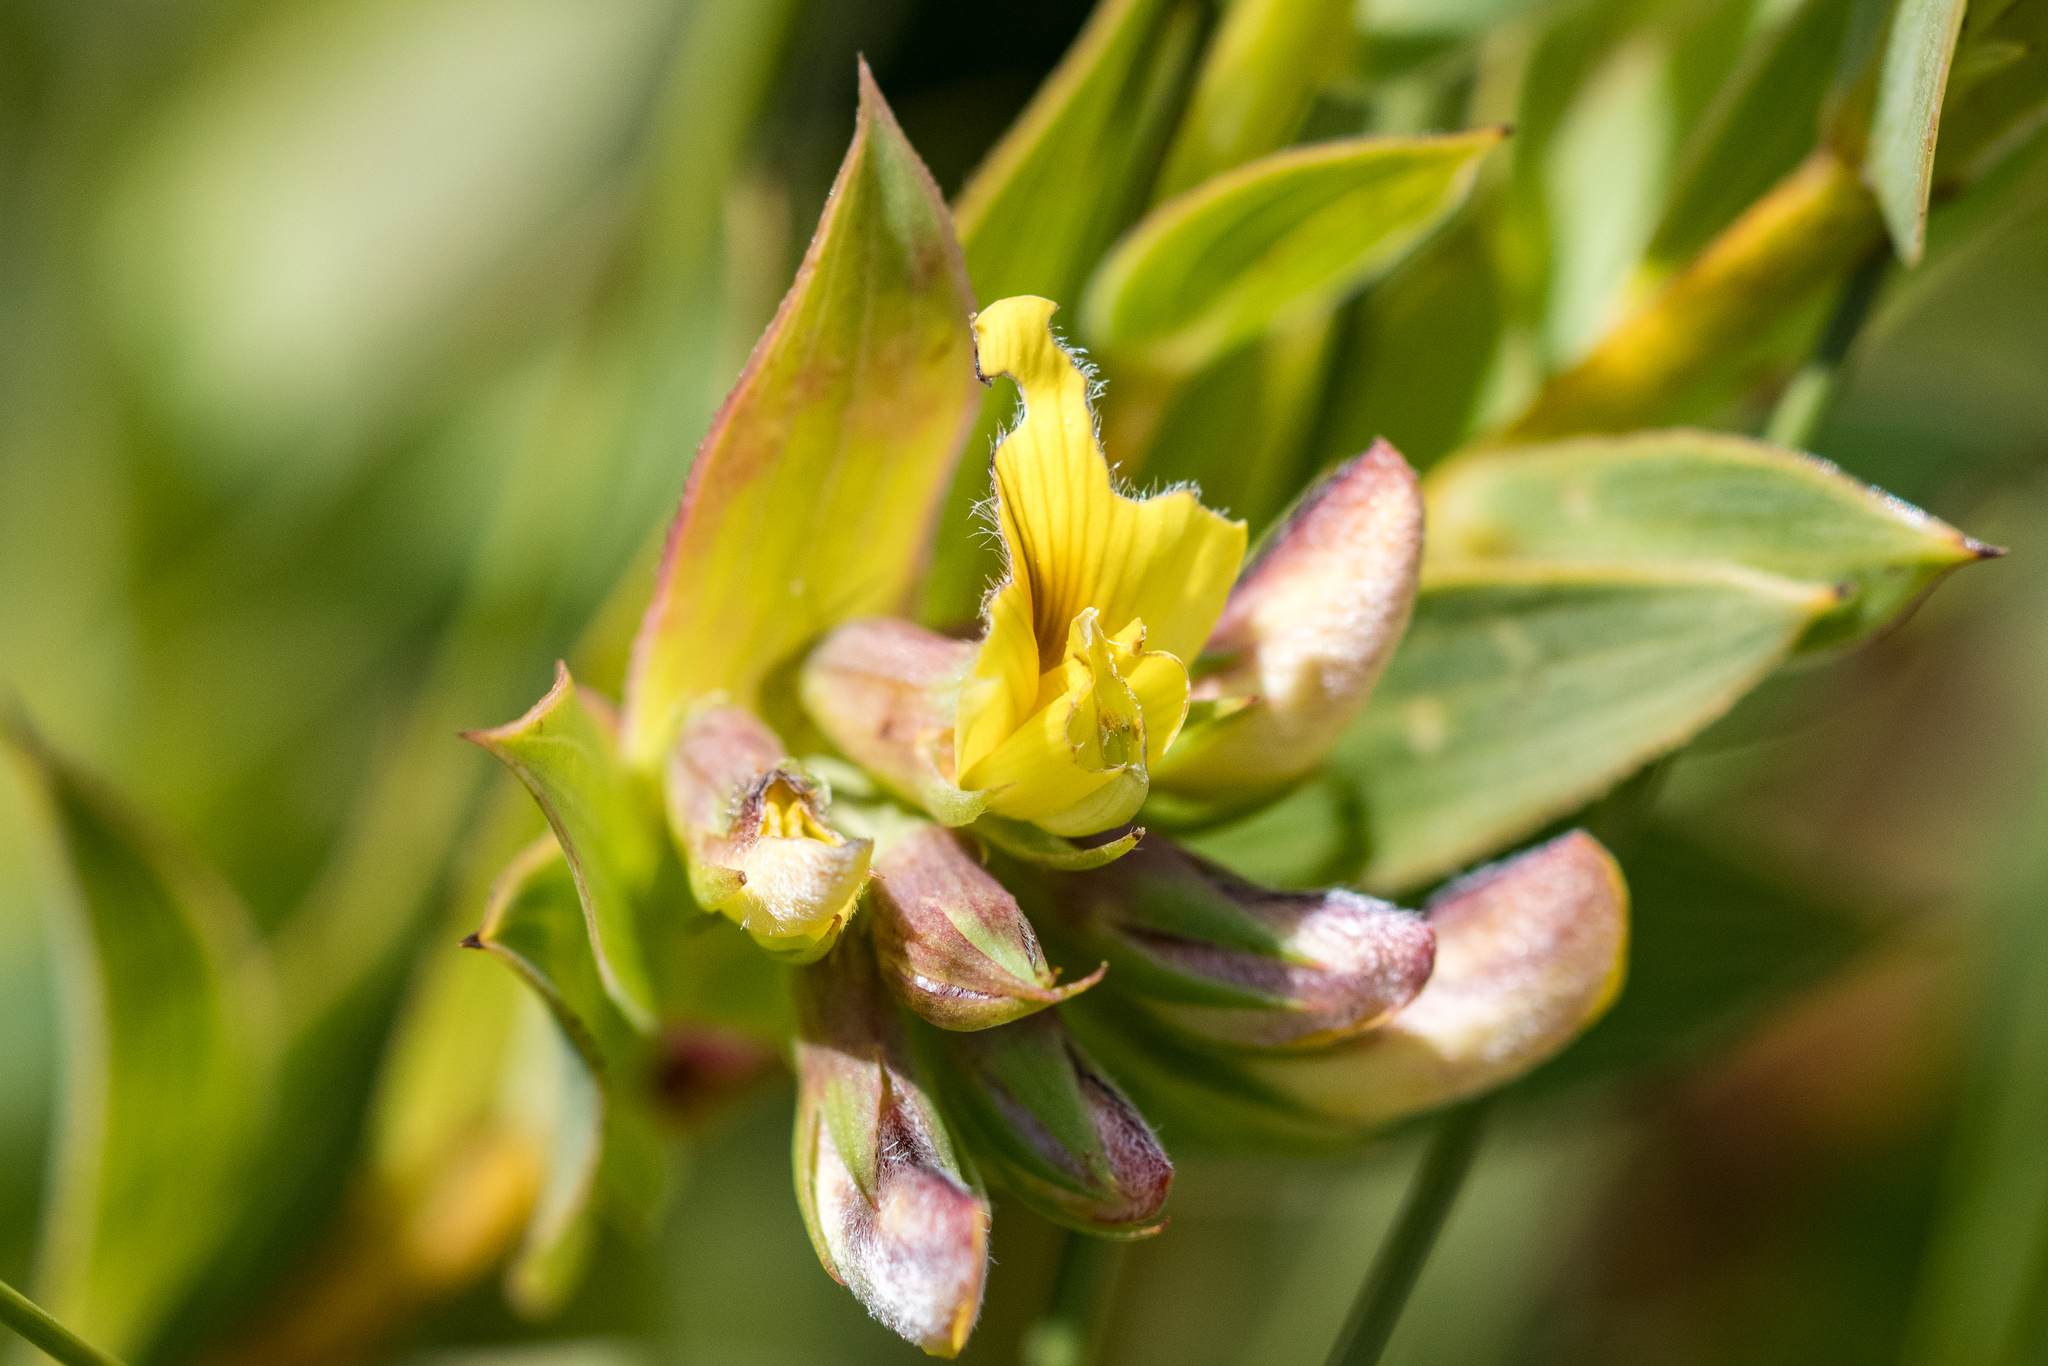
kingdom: Plantae
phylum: Tracheophyta
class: Magnoliopsida
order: Fabales
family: Fabaceae
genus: Aspalathus
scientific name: Aspalathus crenata
